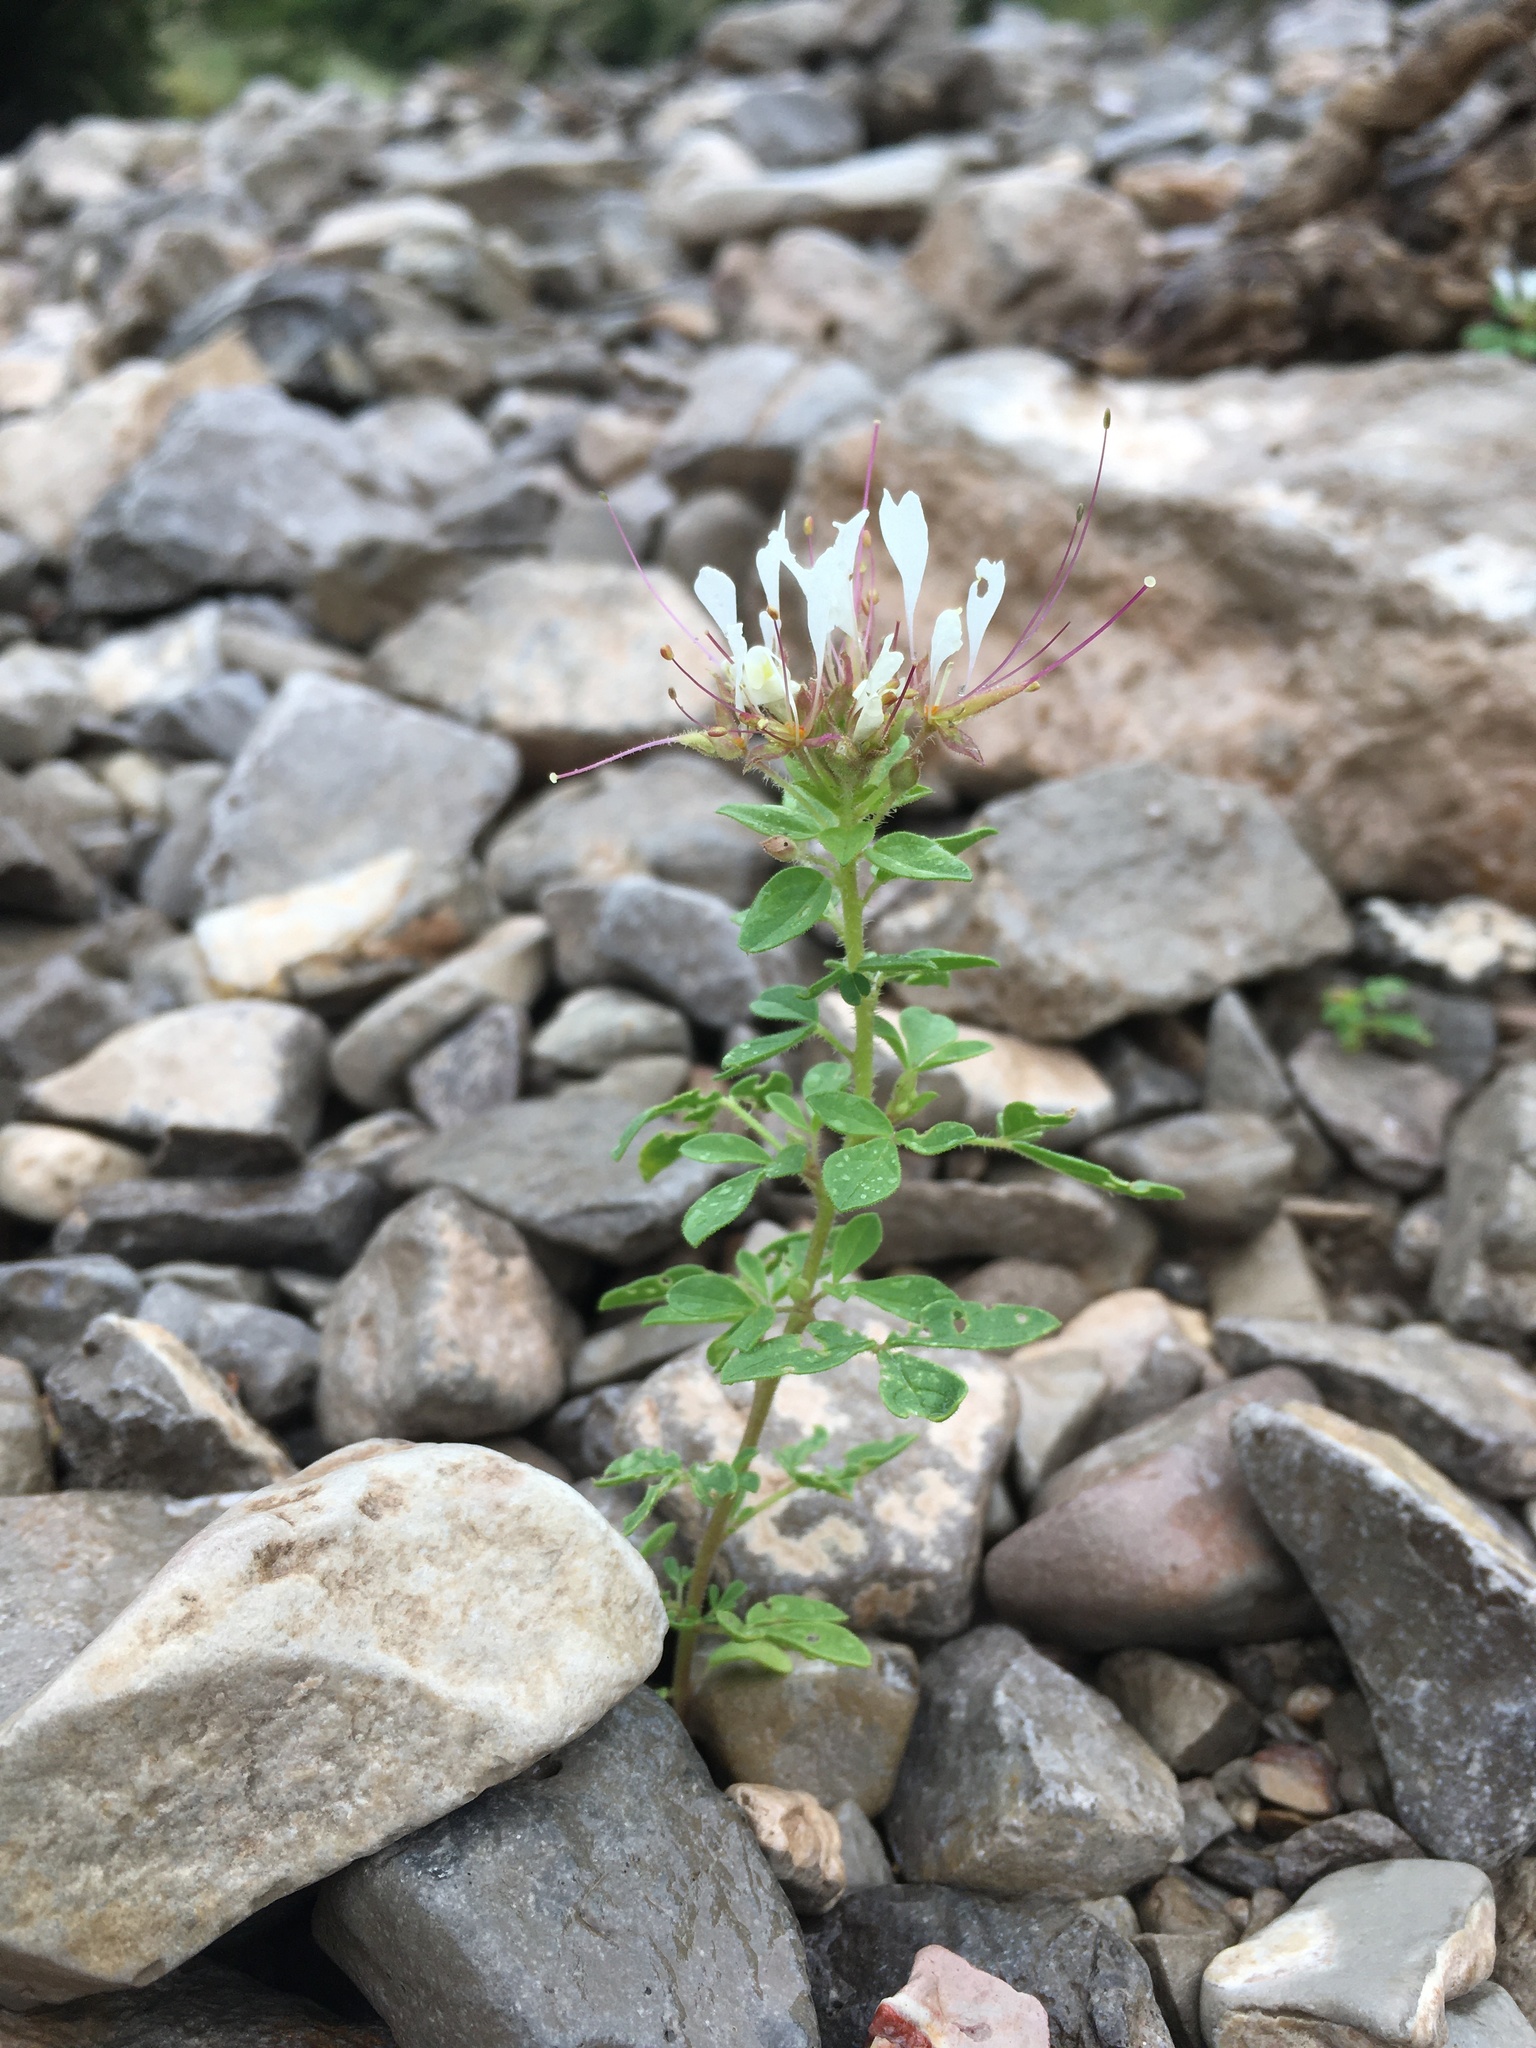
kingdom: Plantae
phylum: Tracheophyta
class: Magnoliopsida
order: Brassicales
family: Cleomaceae
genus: Polanisia
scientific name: Polanisia dodecandra
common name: Clammyweed
